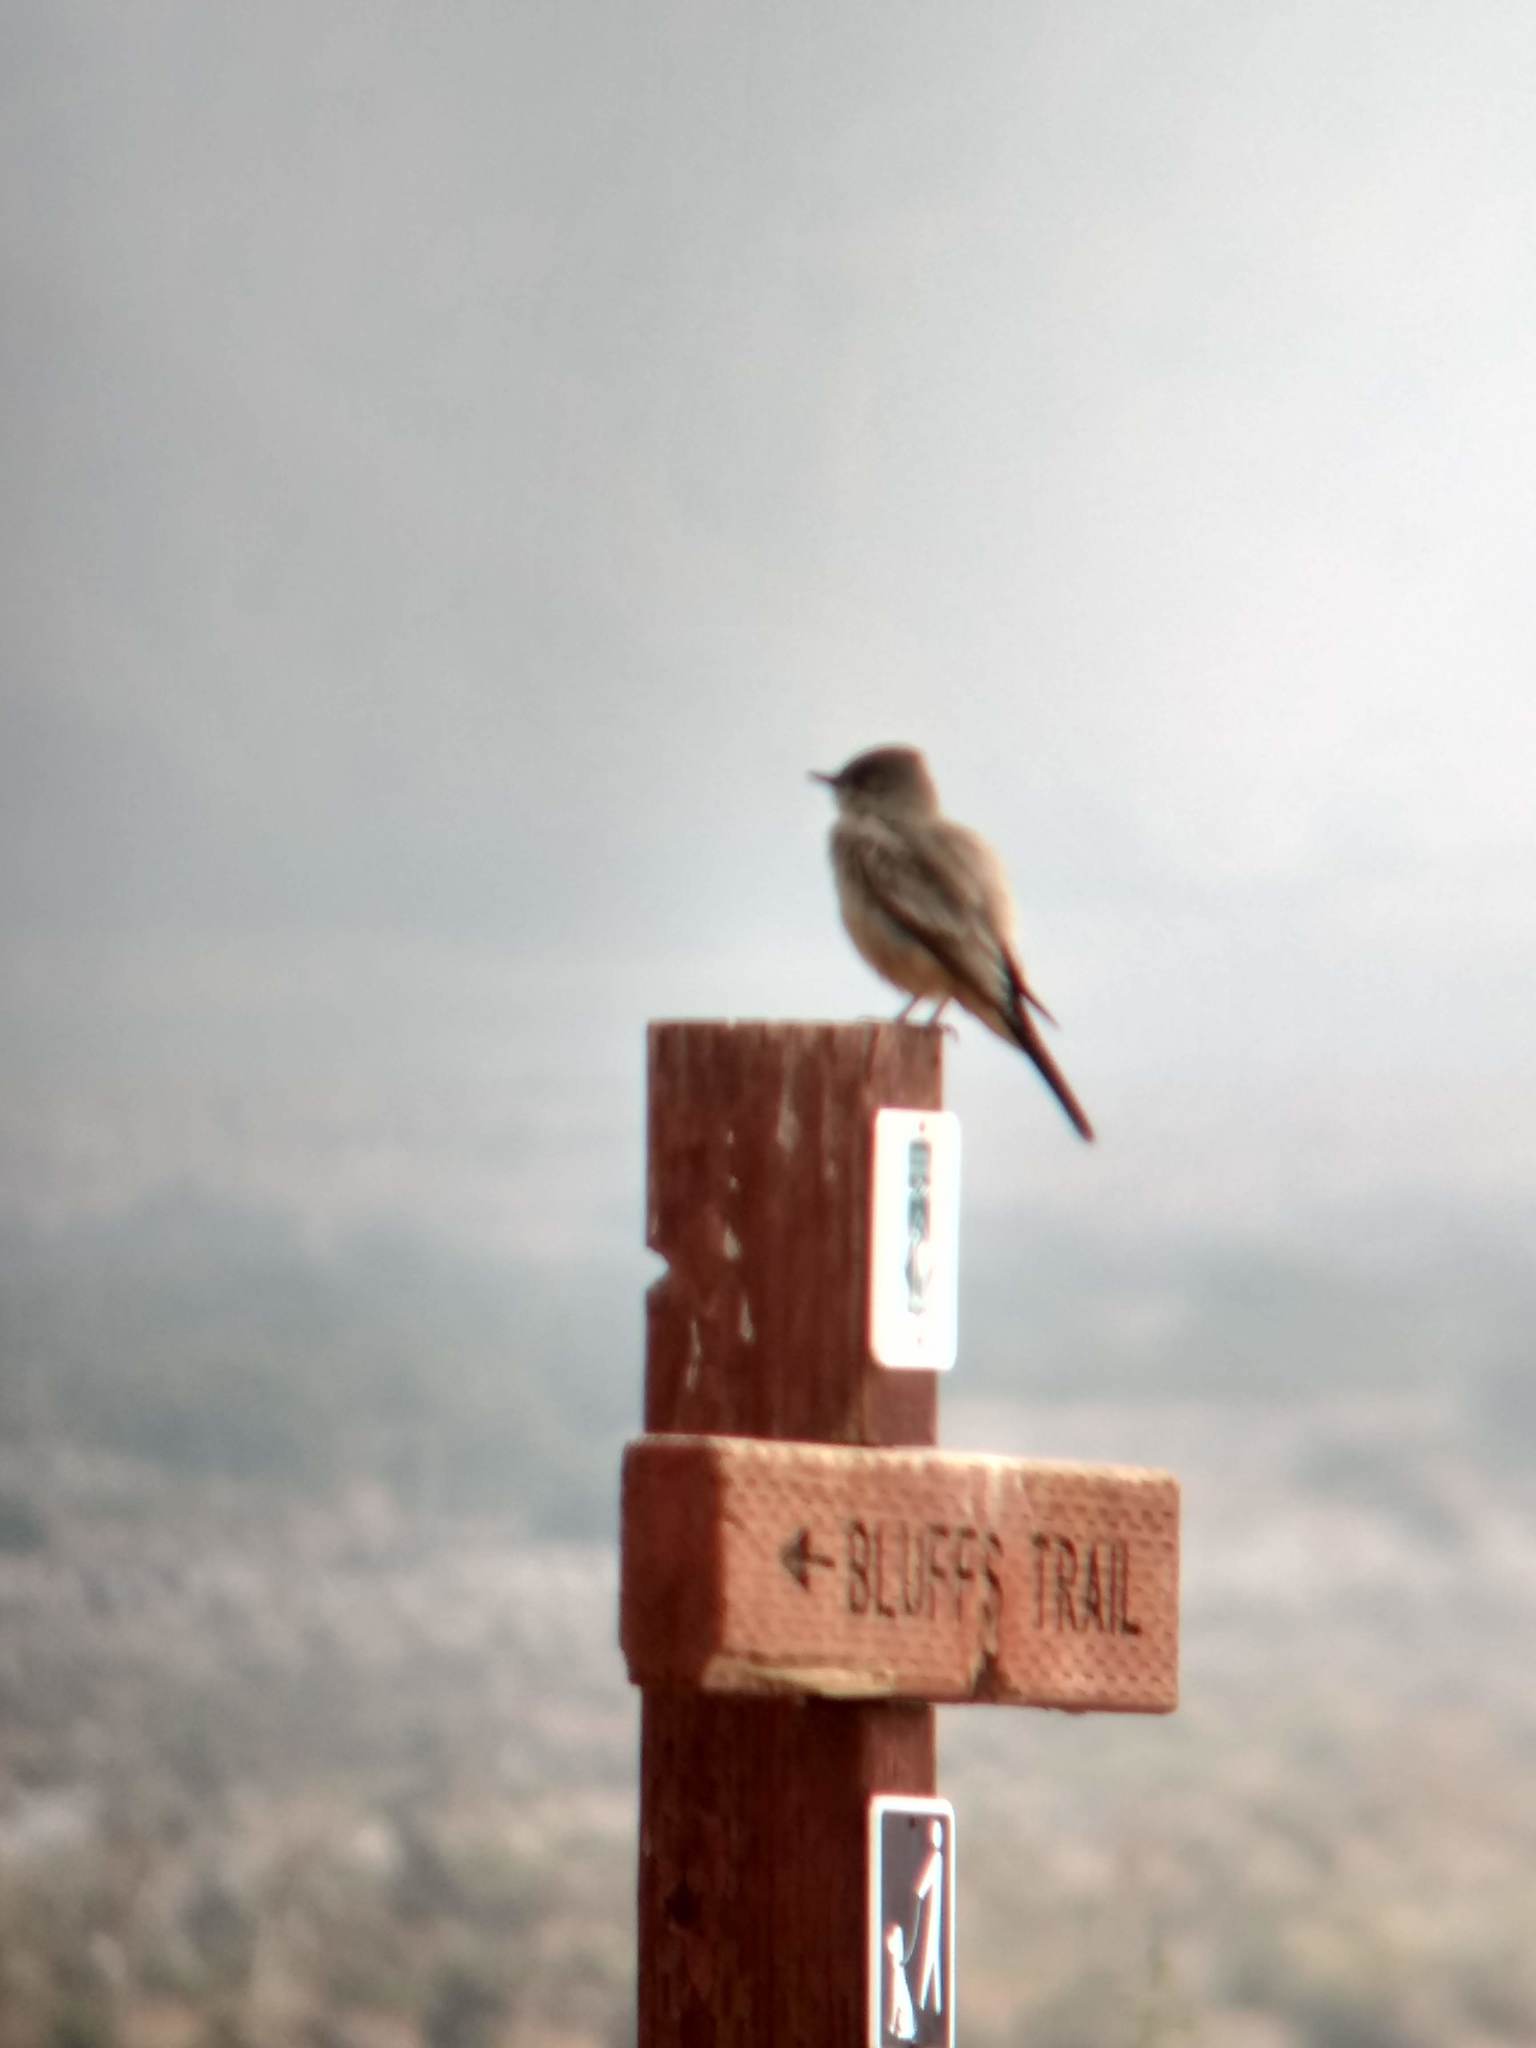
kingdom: Animalia
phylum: Chordata
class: Aves
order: Passeriformes
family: Tyrannidae
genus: Sayornis
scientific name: Sayornis saya
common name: Say's phoebe
